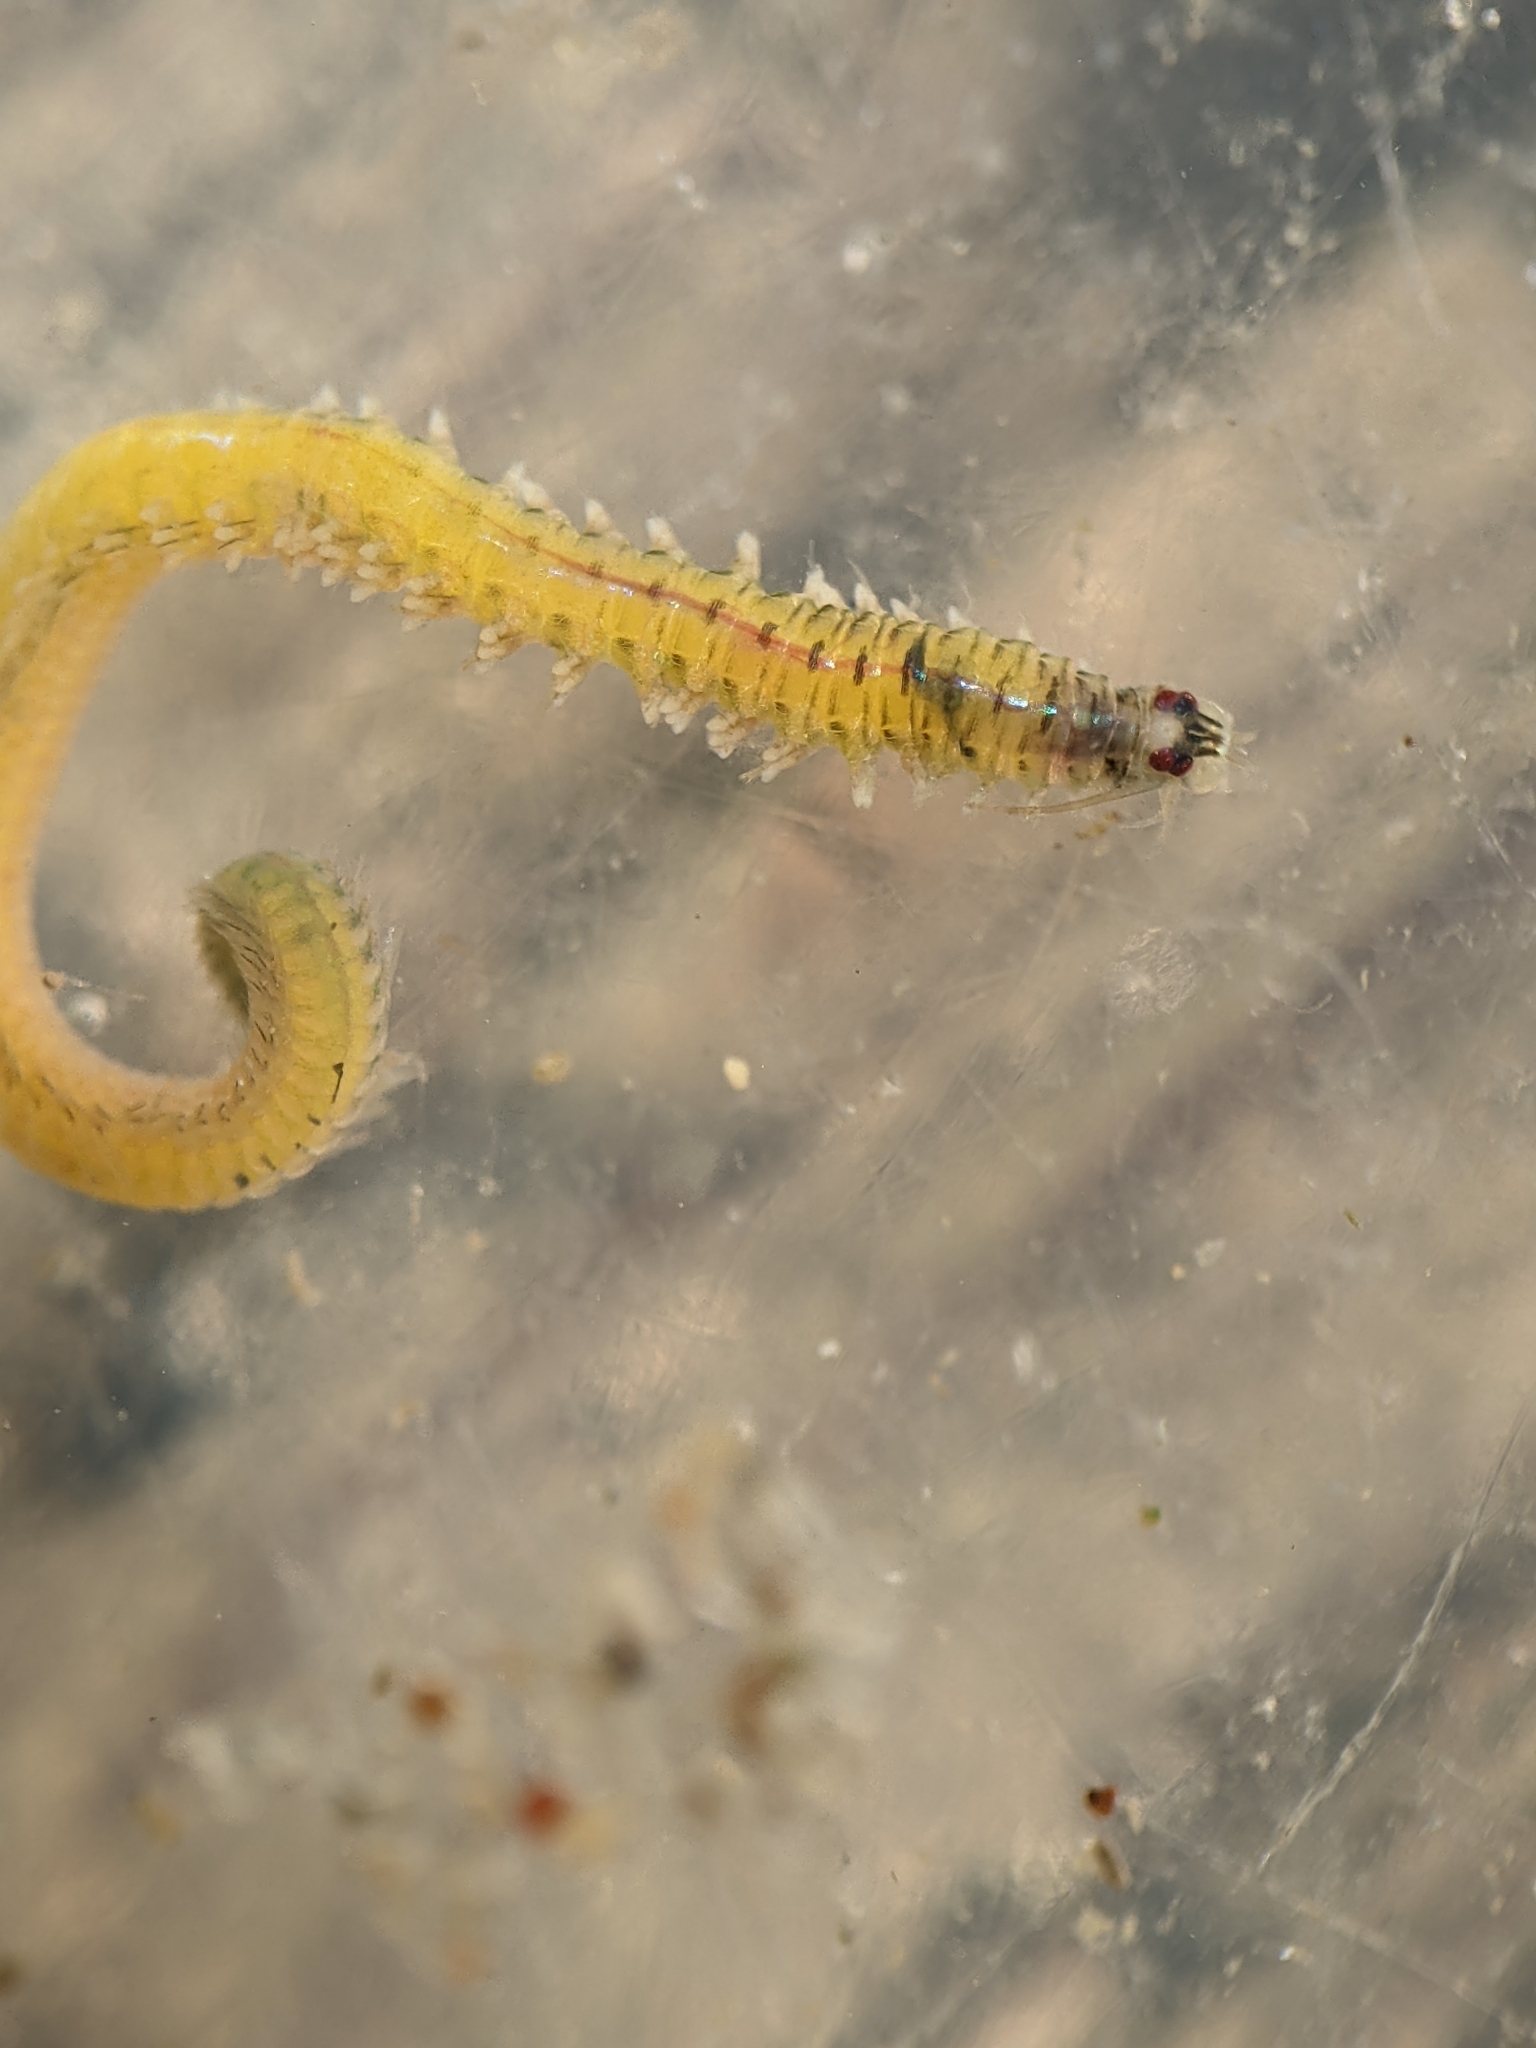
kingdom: Animalia
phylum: Annelida
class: Polychaeta
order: Phyllodocida
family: Nereididae
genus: Nereis
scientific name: Nereis latescens
